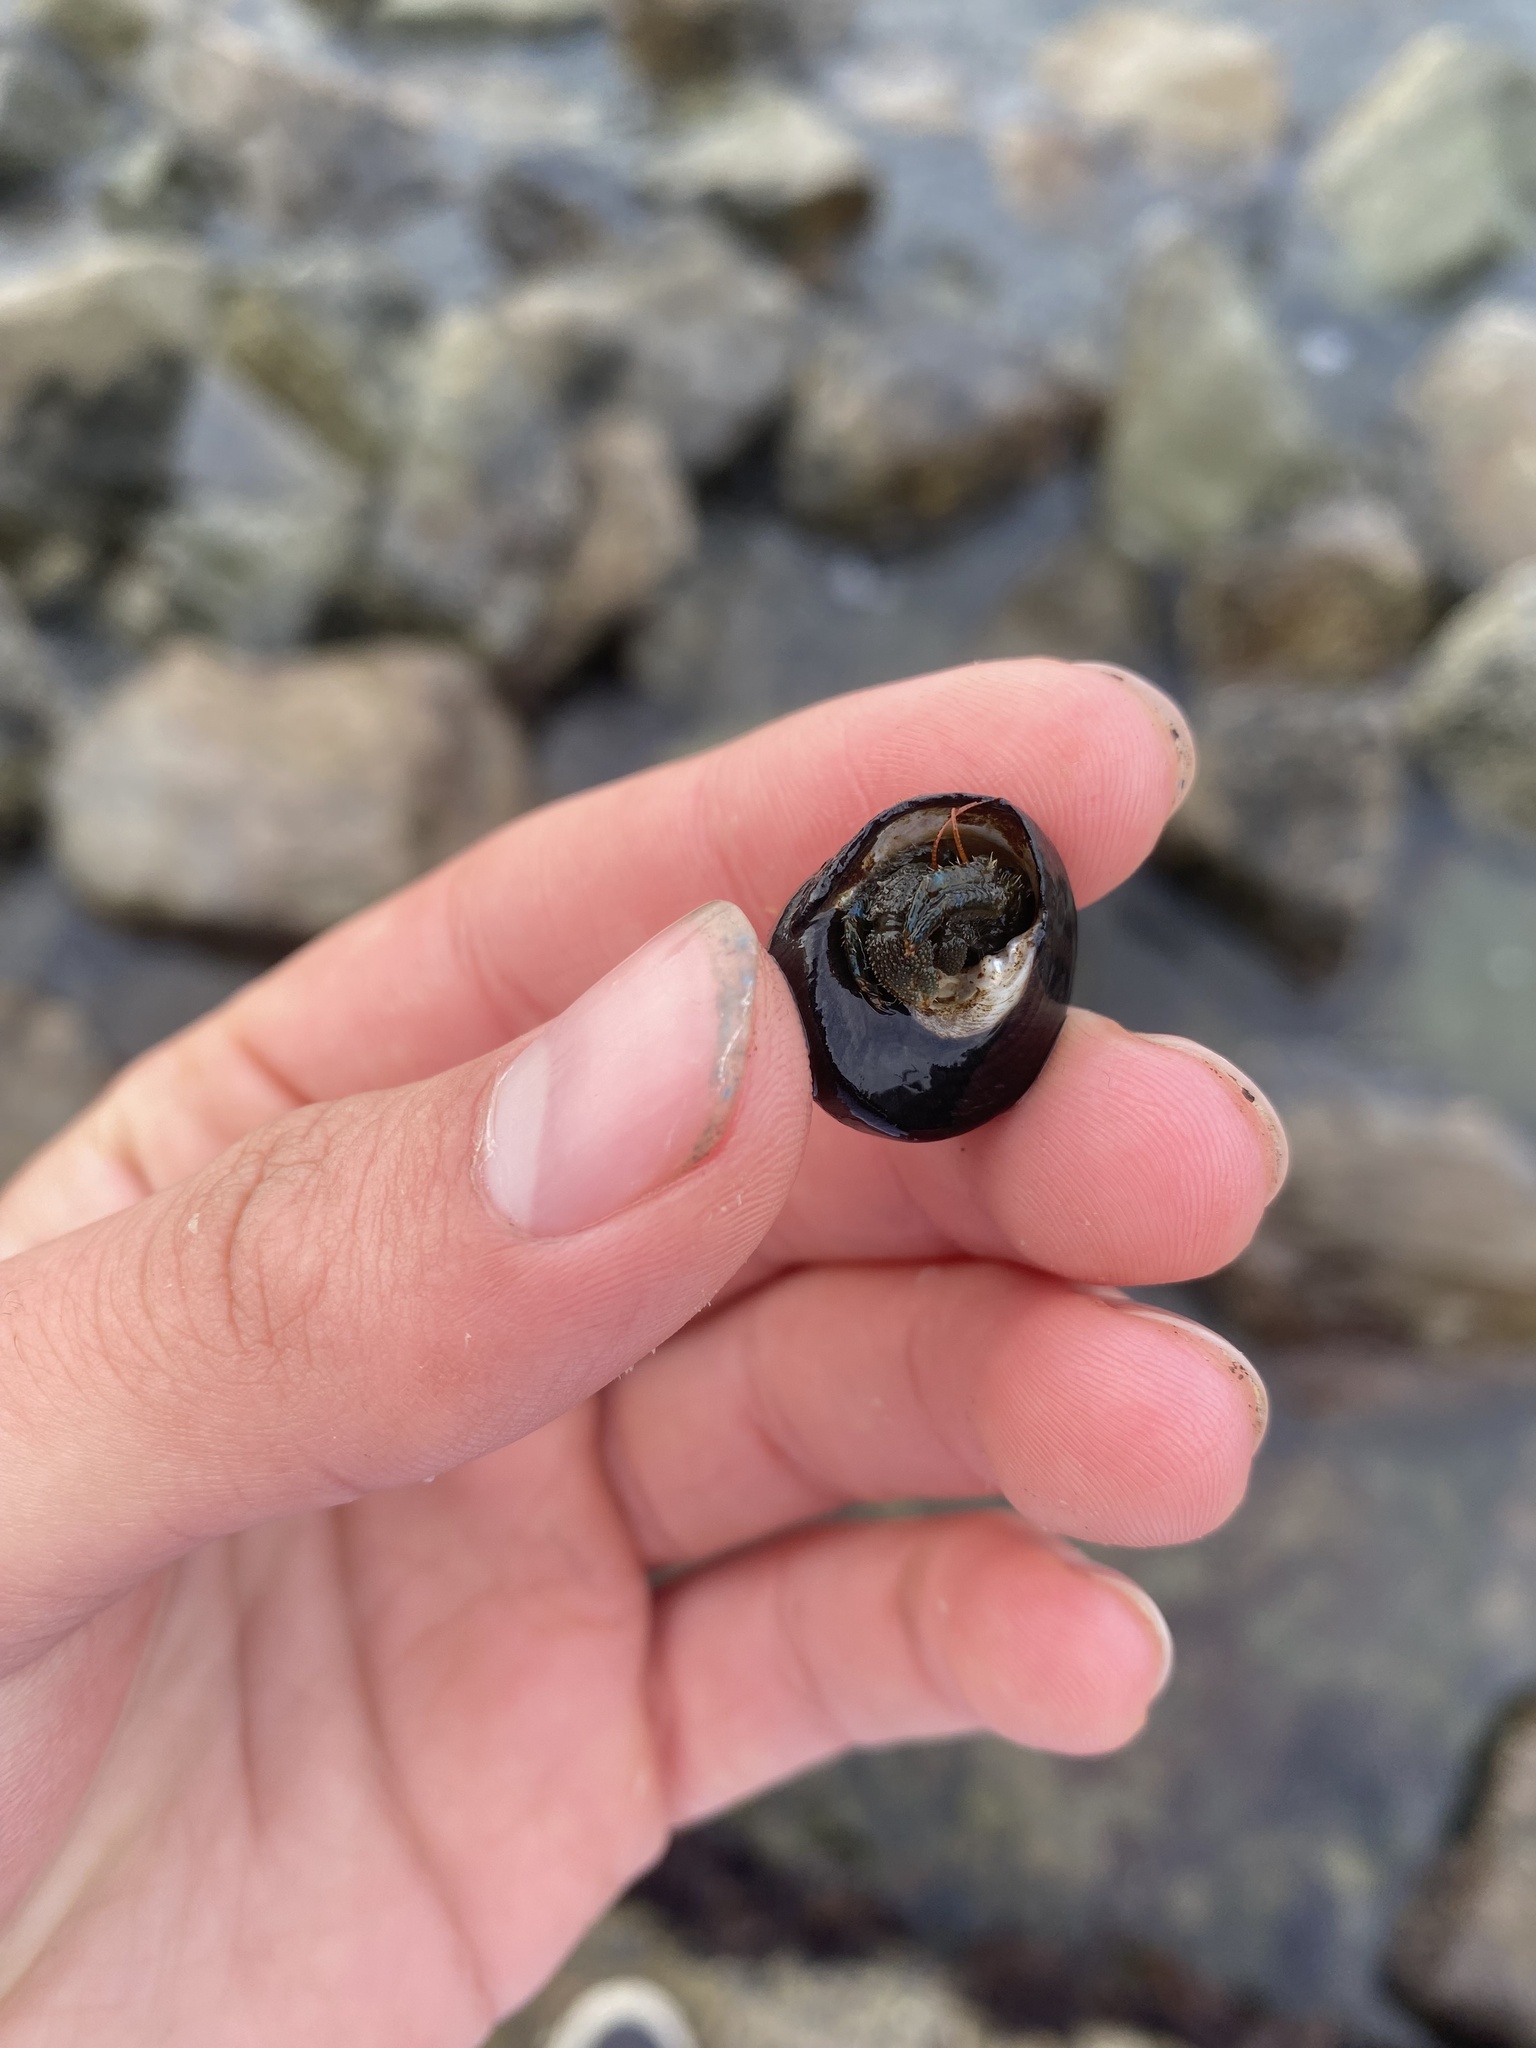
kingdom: Animalia
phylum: Arthropoda
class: Malacostraca
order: Decapoda
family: Paguridae
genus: Pagurus
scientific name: Pagurus samuelis
